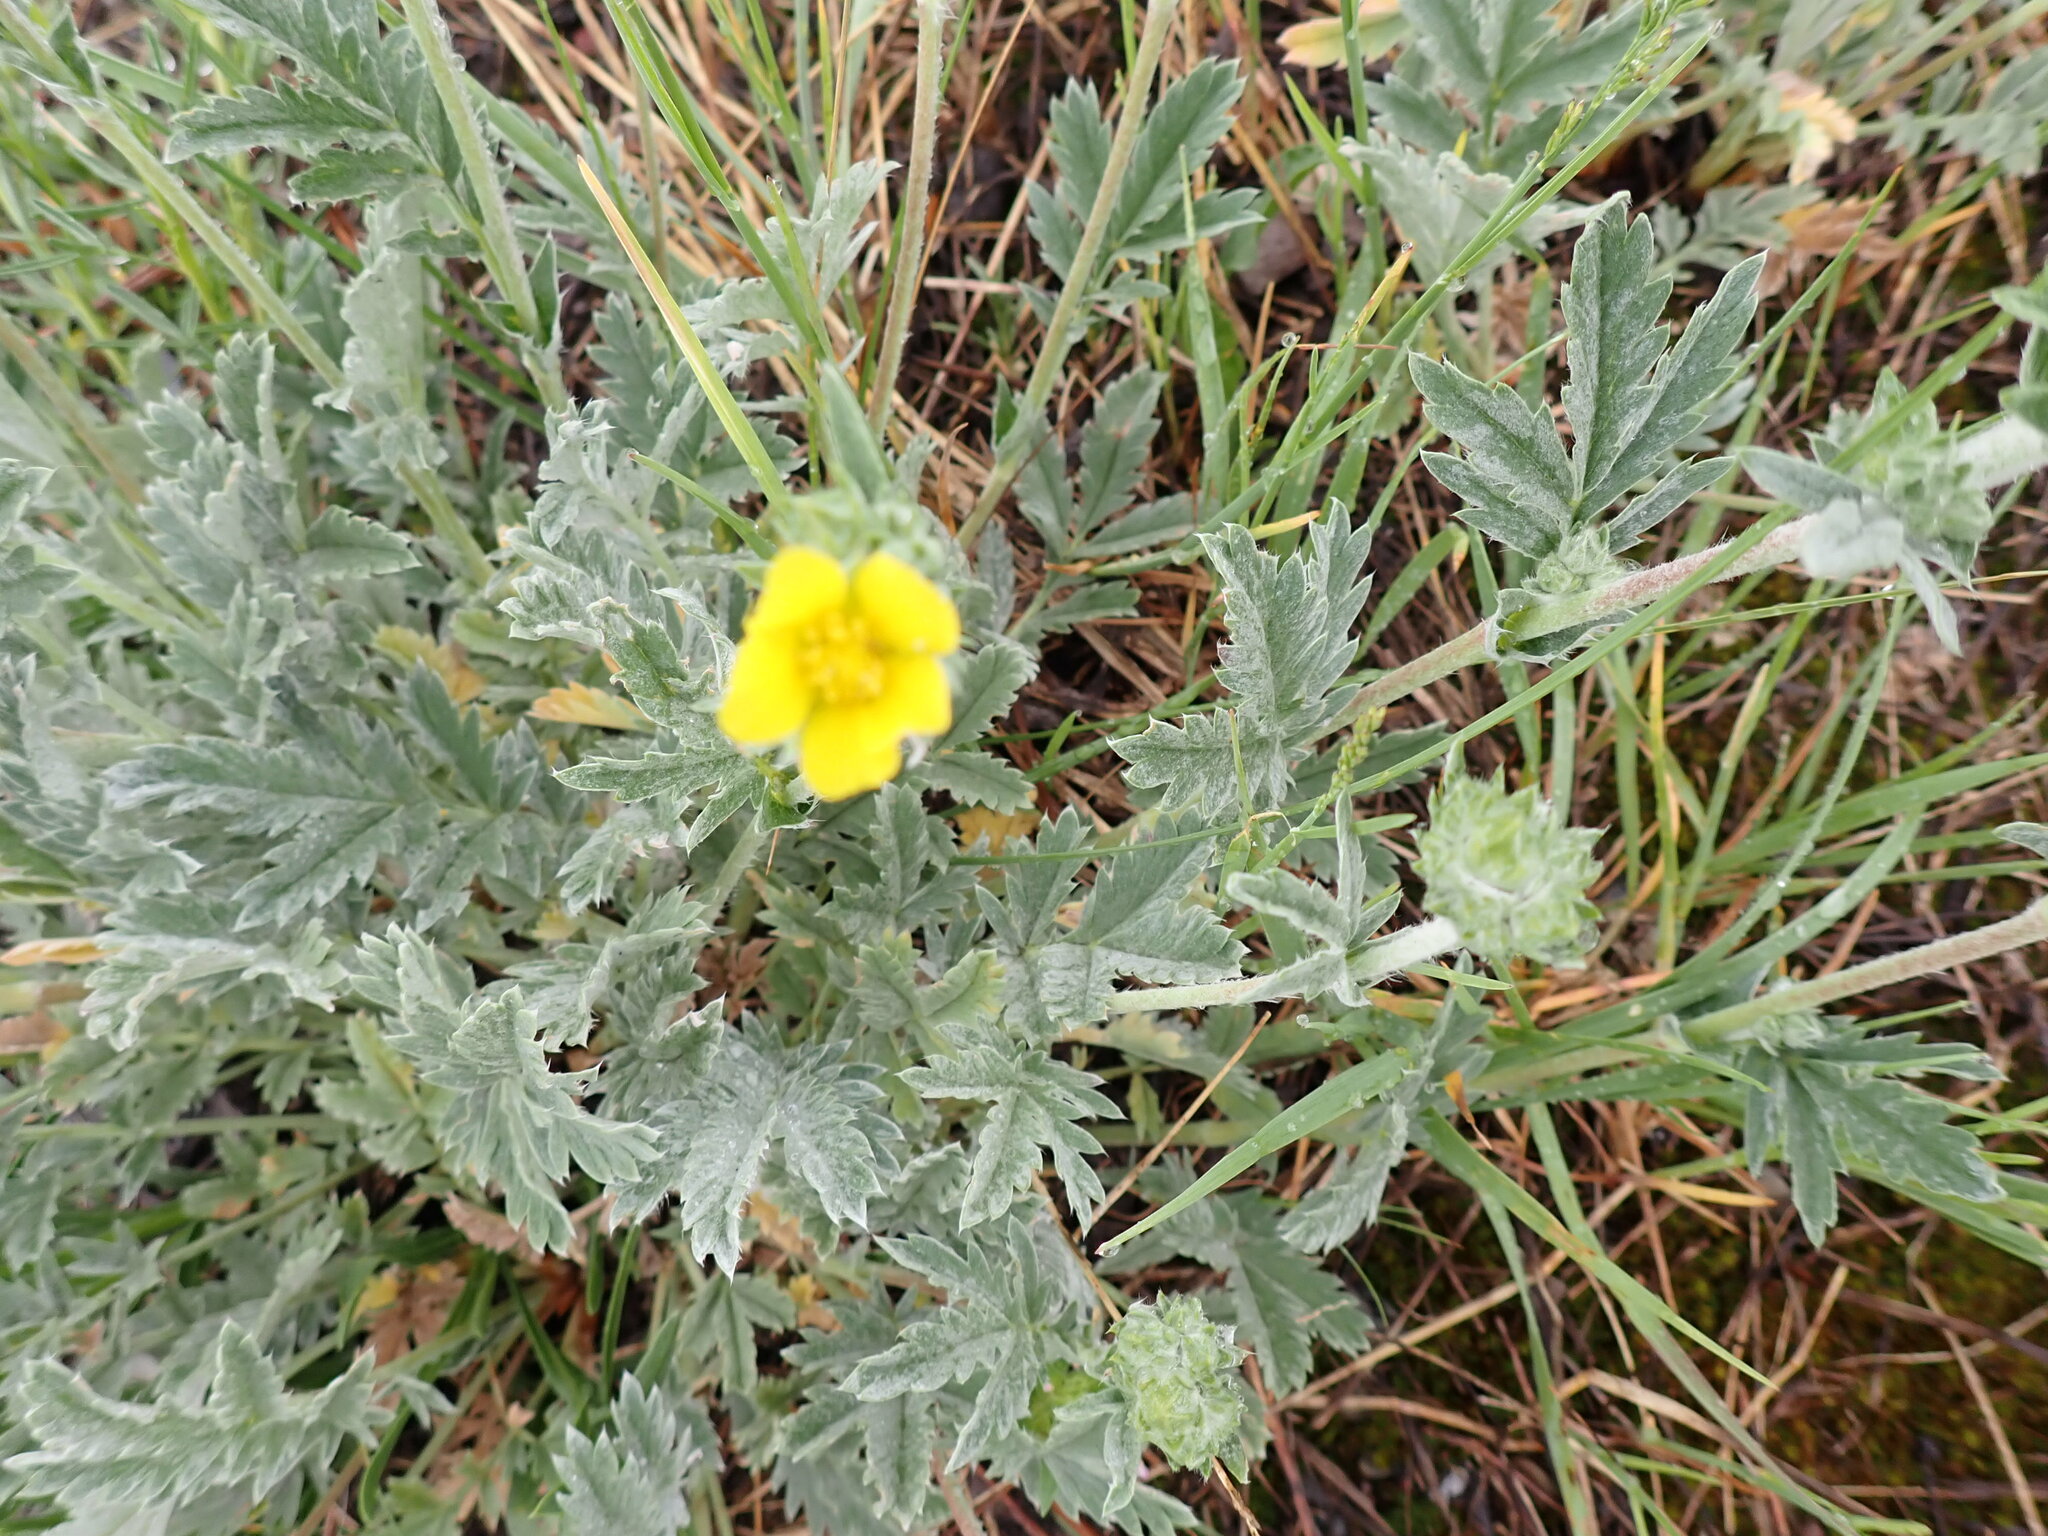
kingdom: Plantae
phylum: Tracheophyta
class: Magnoliopsida
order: Rosales
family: Rosaceae
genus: Potentilla
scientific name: Potentilla effusa
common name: Branched cinquefoil
